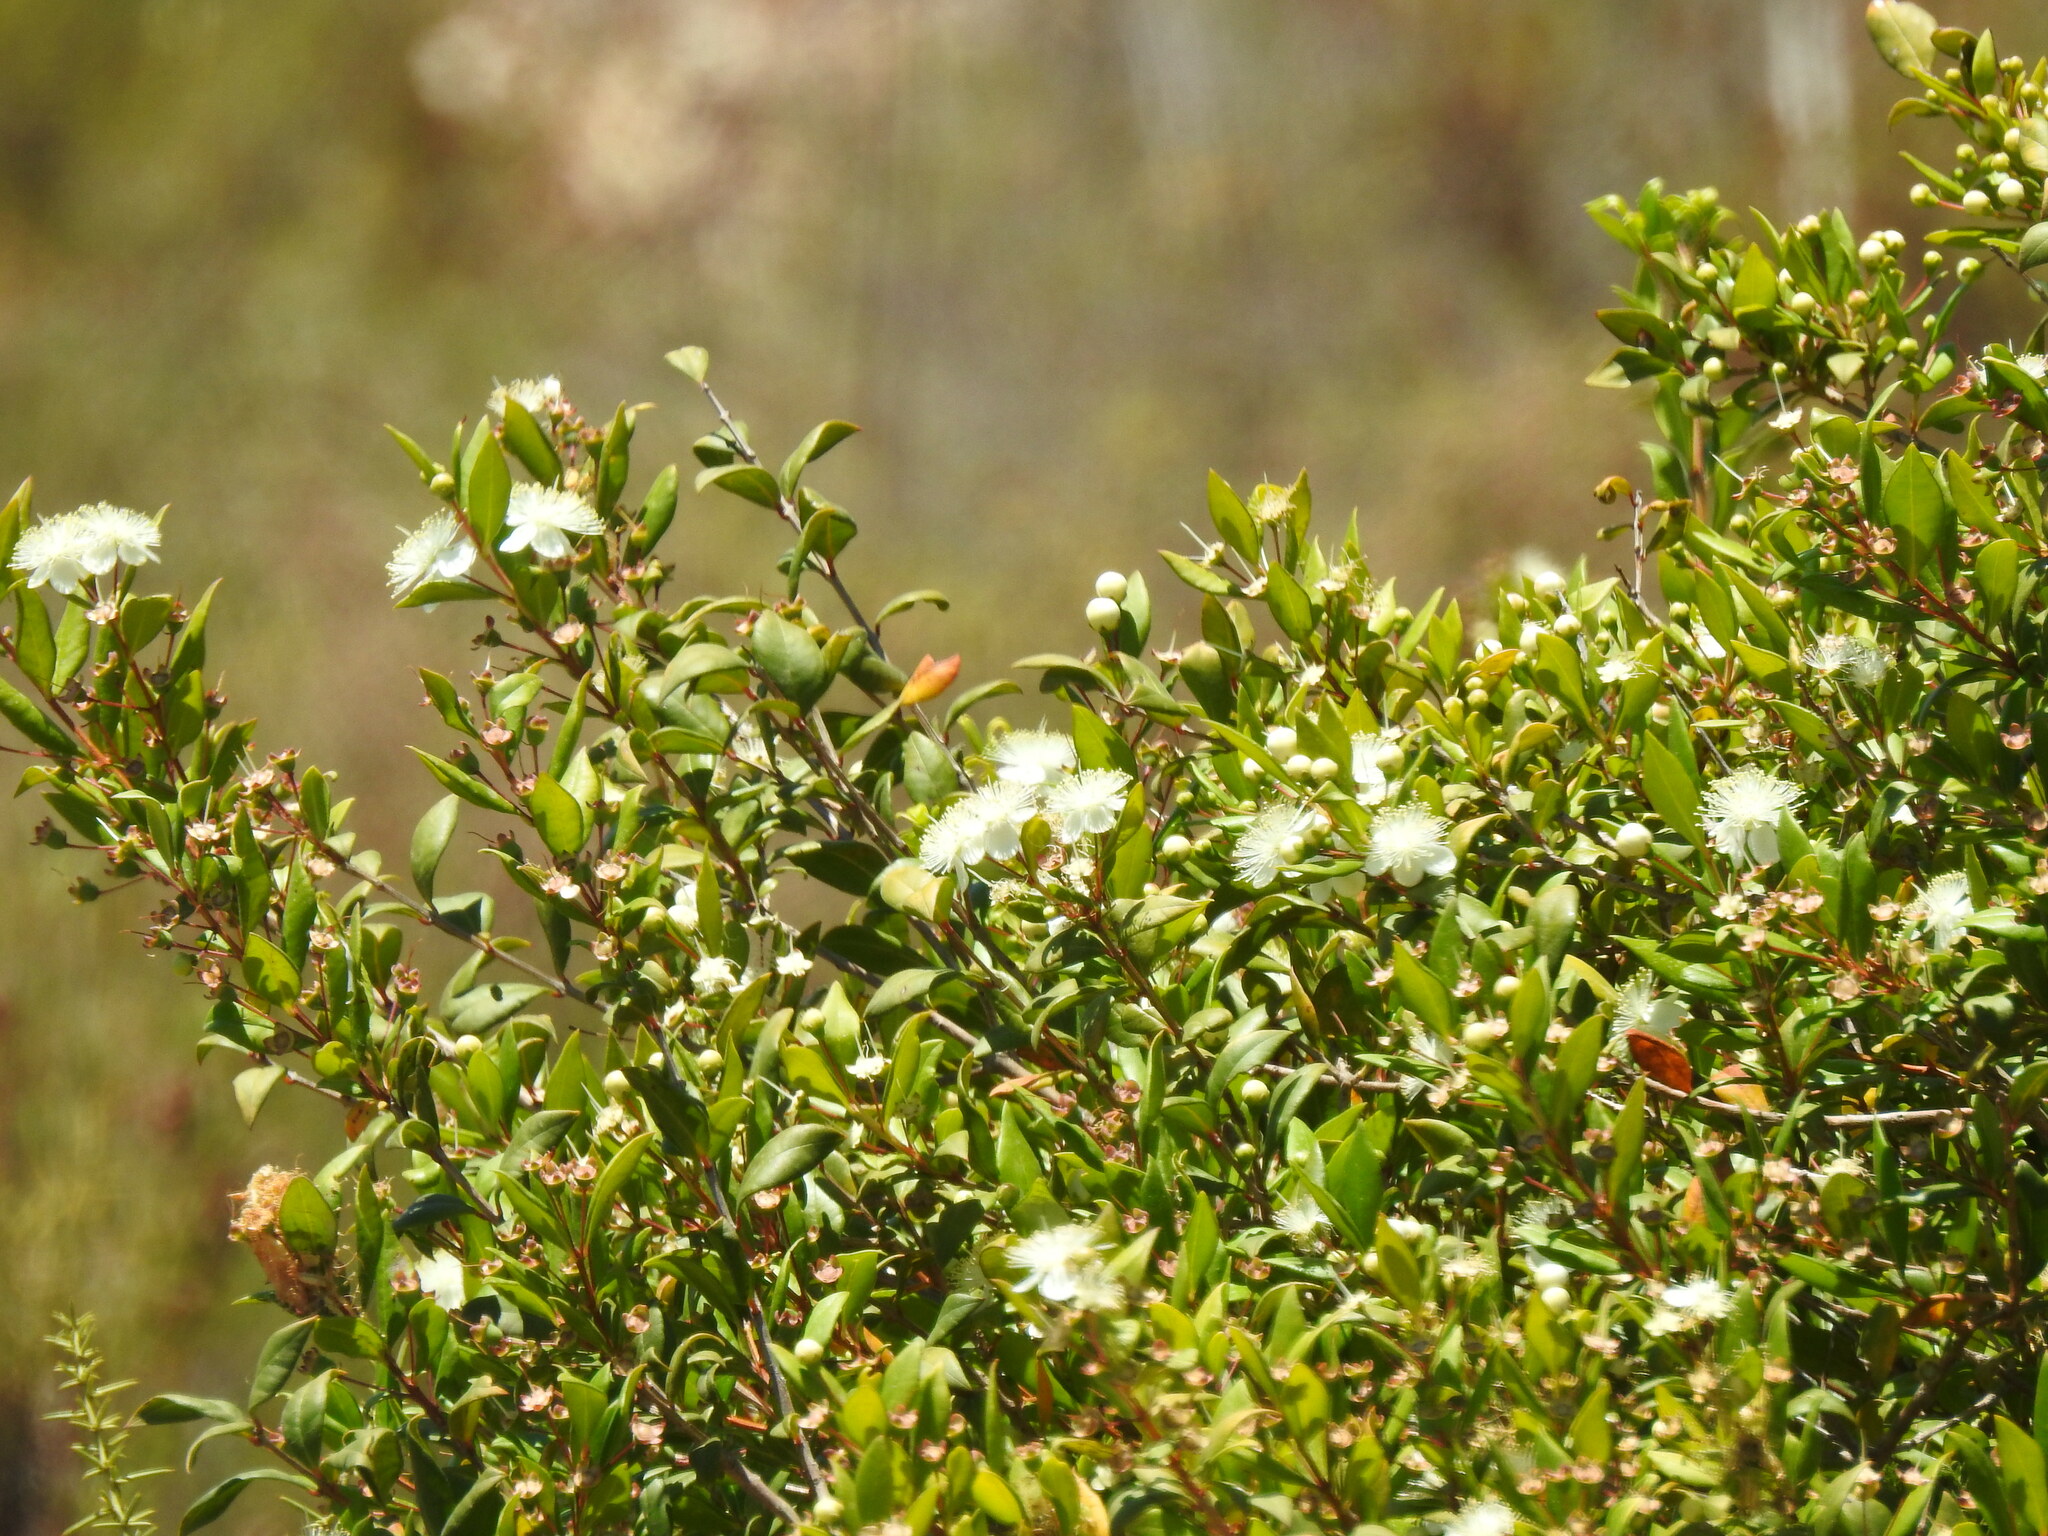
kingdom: Plantae
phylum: Tracheophyta
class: Magnoliopsida
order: Myrtales
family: Myrtaceae
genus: Myrtus
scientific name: Myrtus communis
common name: Myrtle
